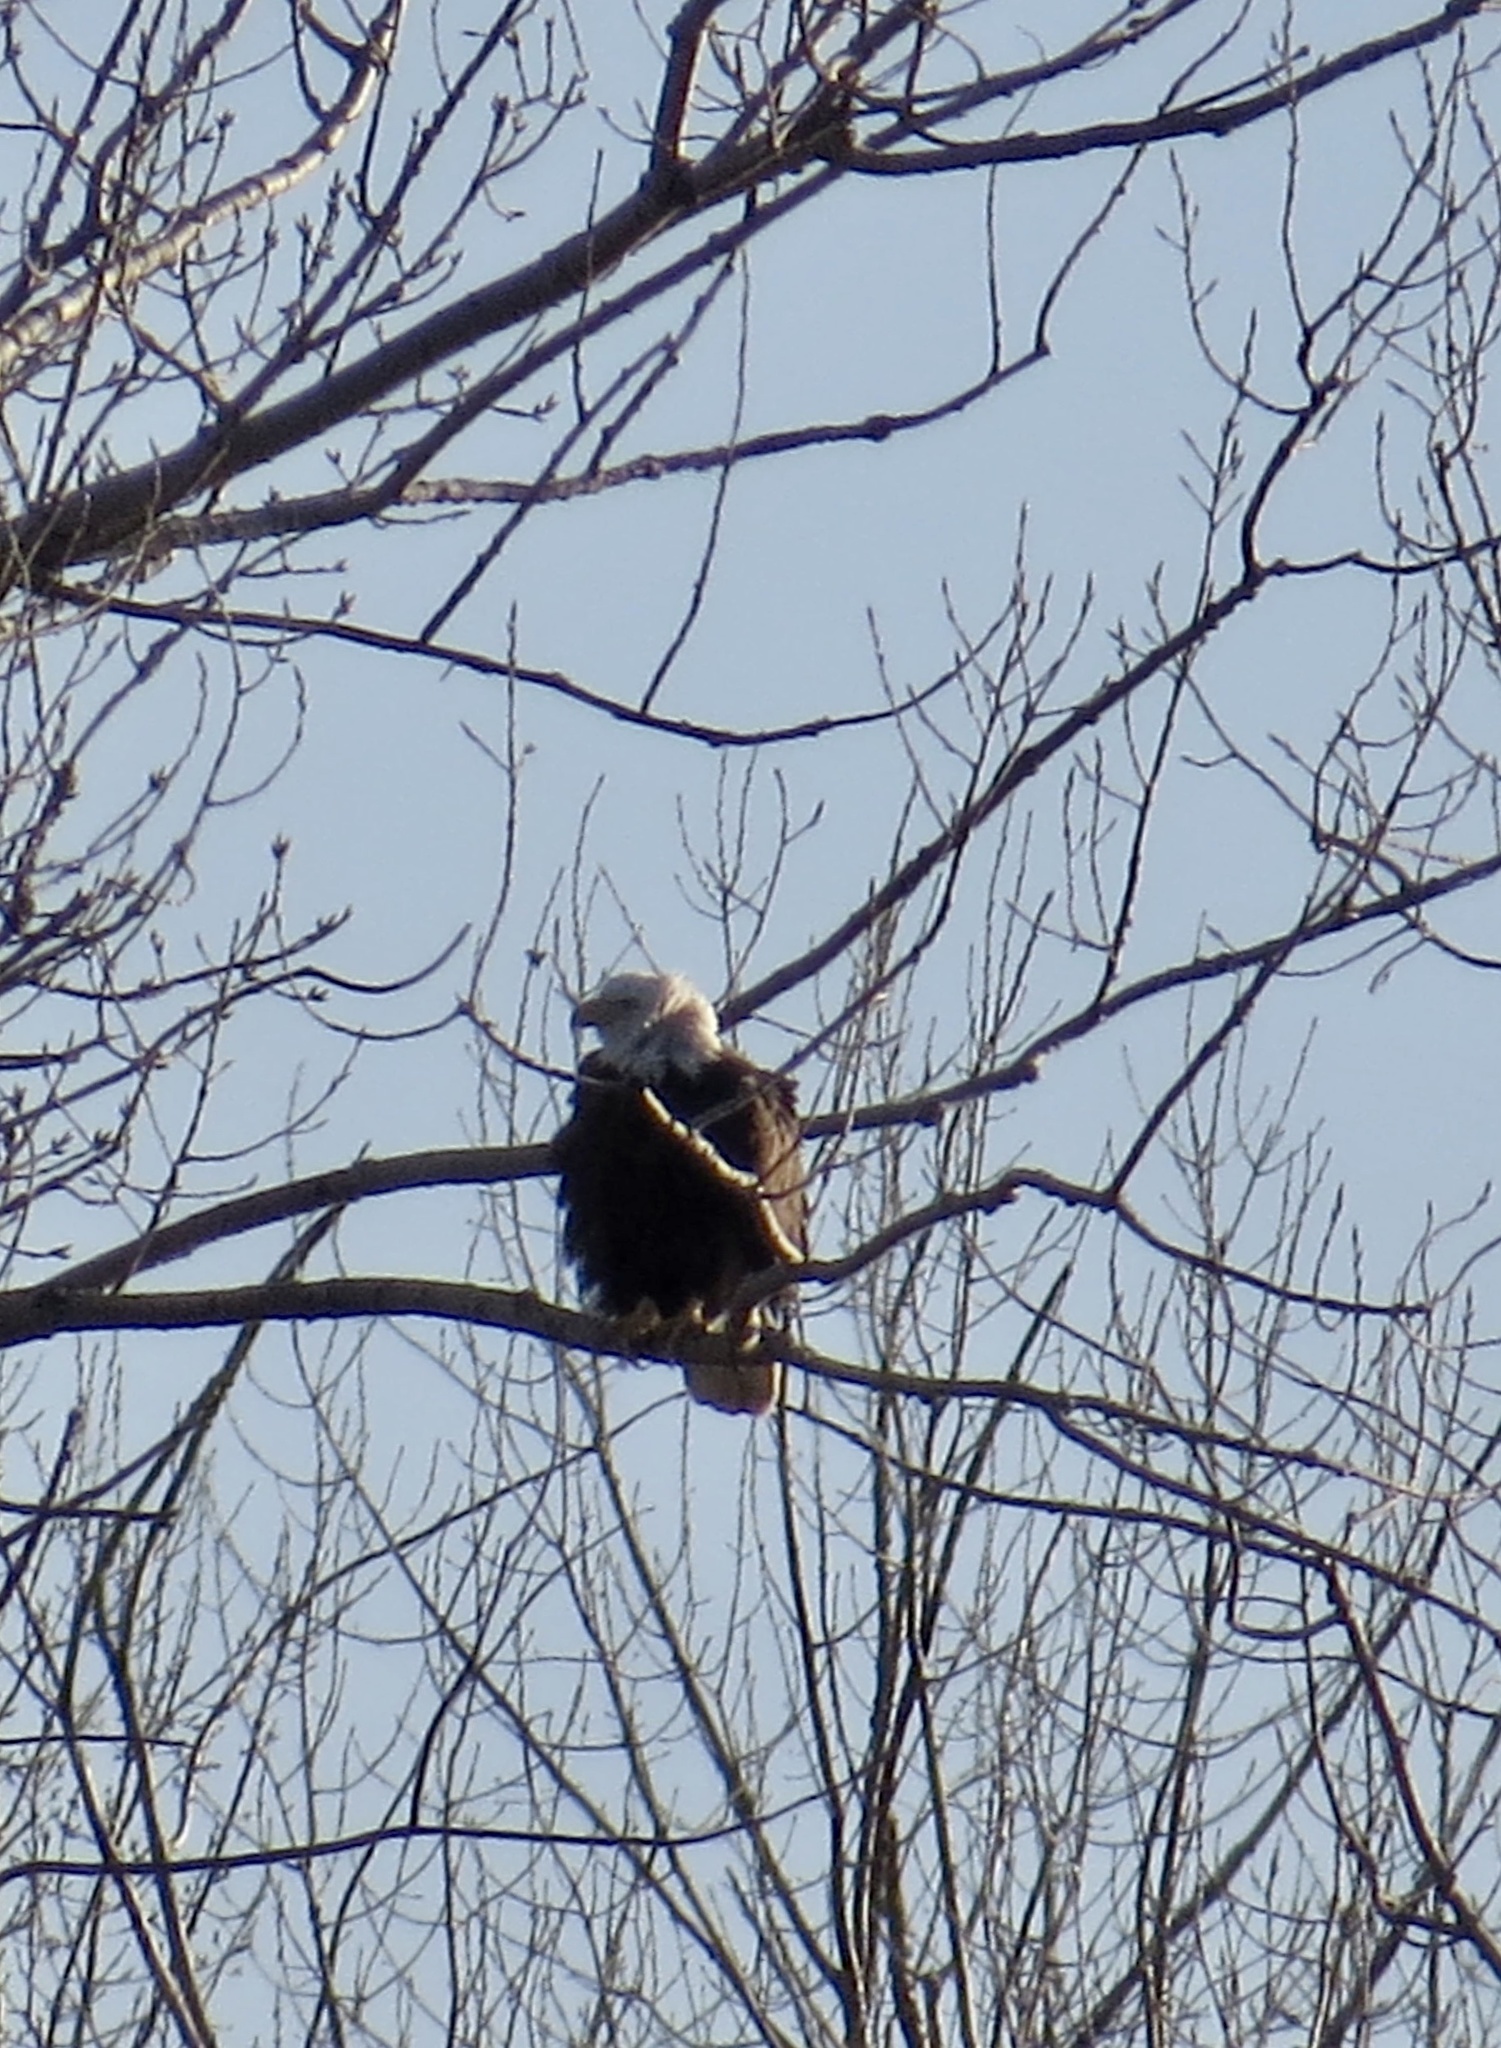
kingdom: Animalia
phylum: Chordata
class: Aves
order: Accipitriformes
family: Accipitridae
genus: Haliaeetus
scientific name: Haliaeetus leucocephalus
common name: Bald eagle
